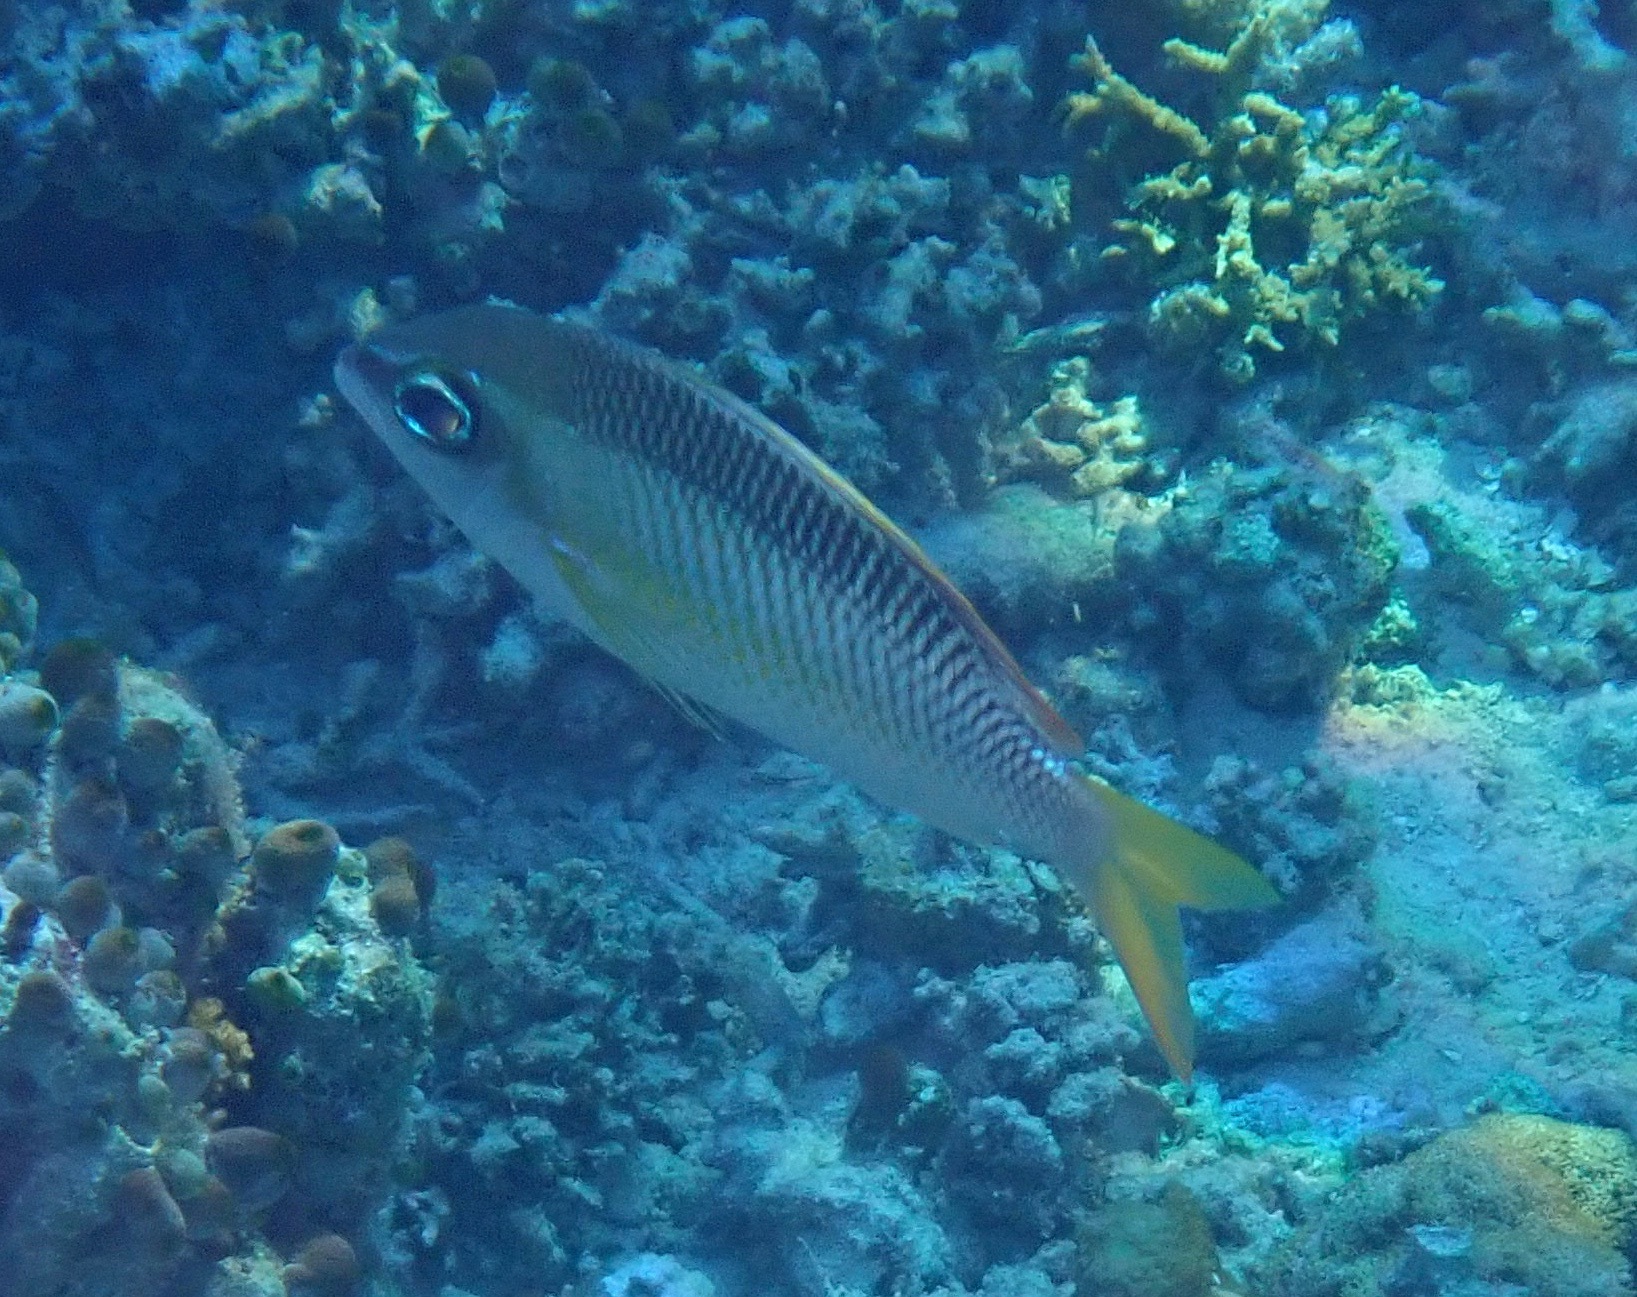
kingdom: Animalia
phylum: Chordata
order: Perciformes
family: Nemipteridae
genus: Scolopsis
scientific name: Scolopsis margaritifera
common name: Pearly monocle bream
